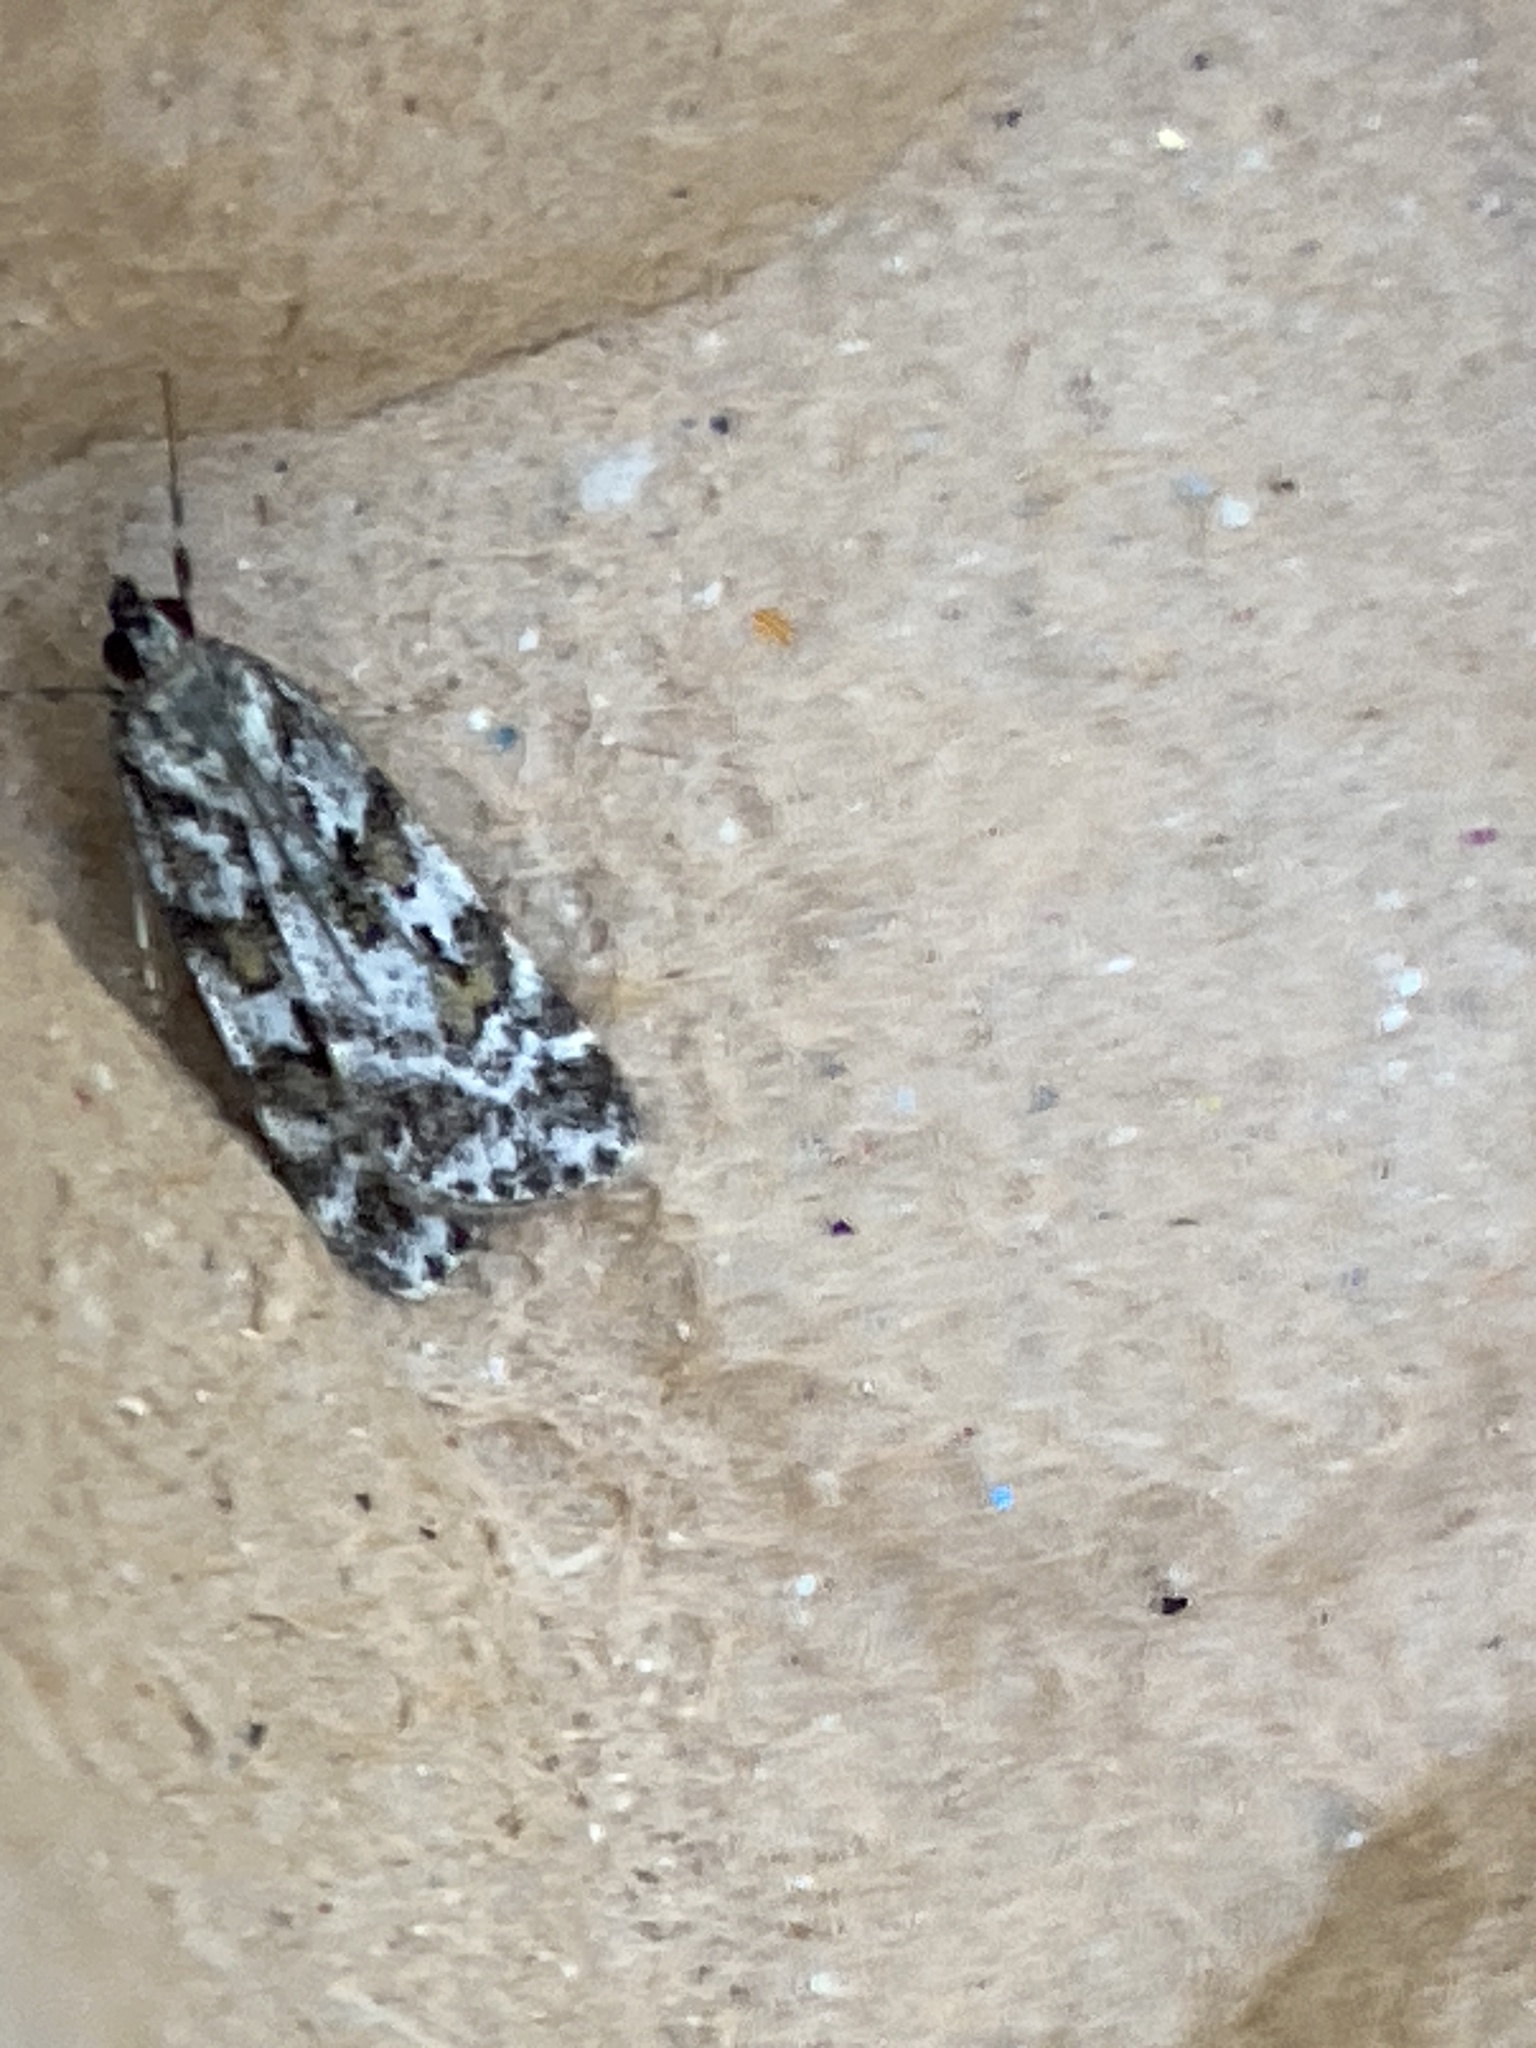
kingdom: Animalia
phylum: Arthropoda
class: Insecta
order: Lepidoptera
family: Crambidae
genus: Scoparia
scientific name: Scoparia pyralella
